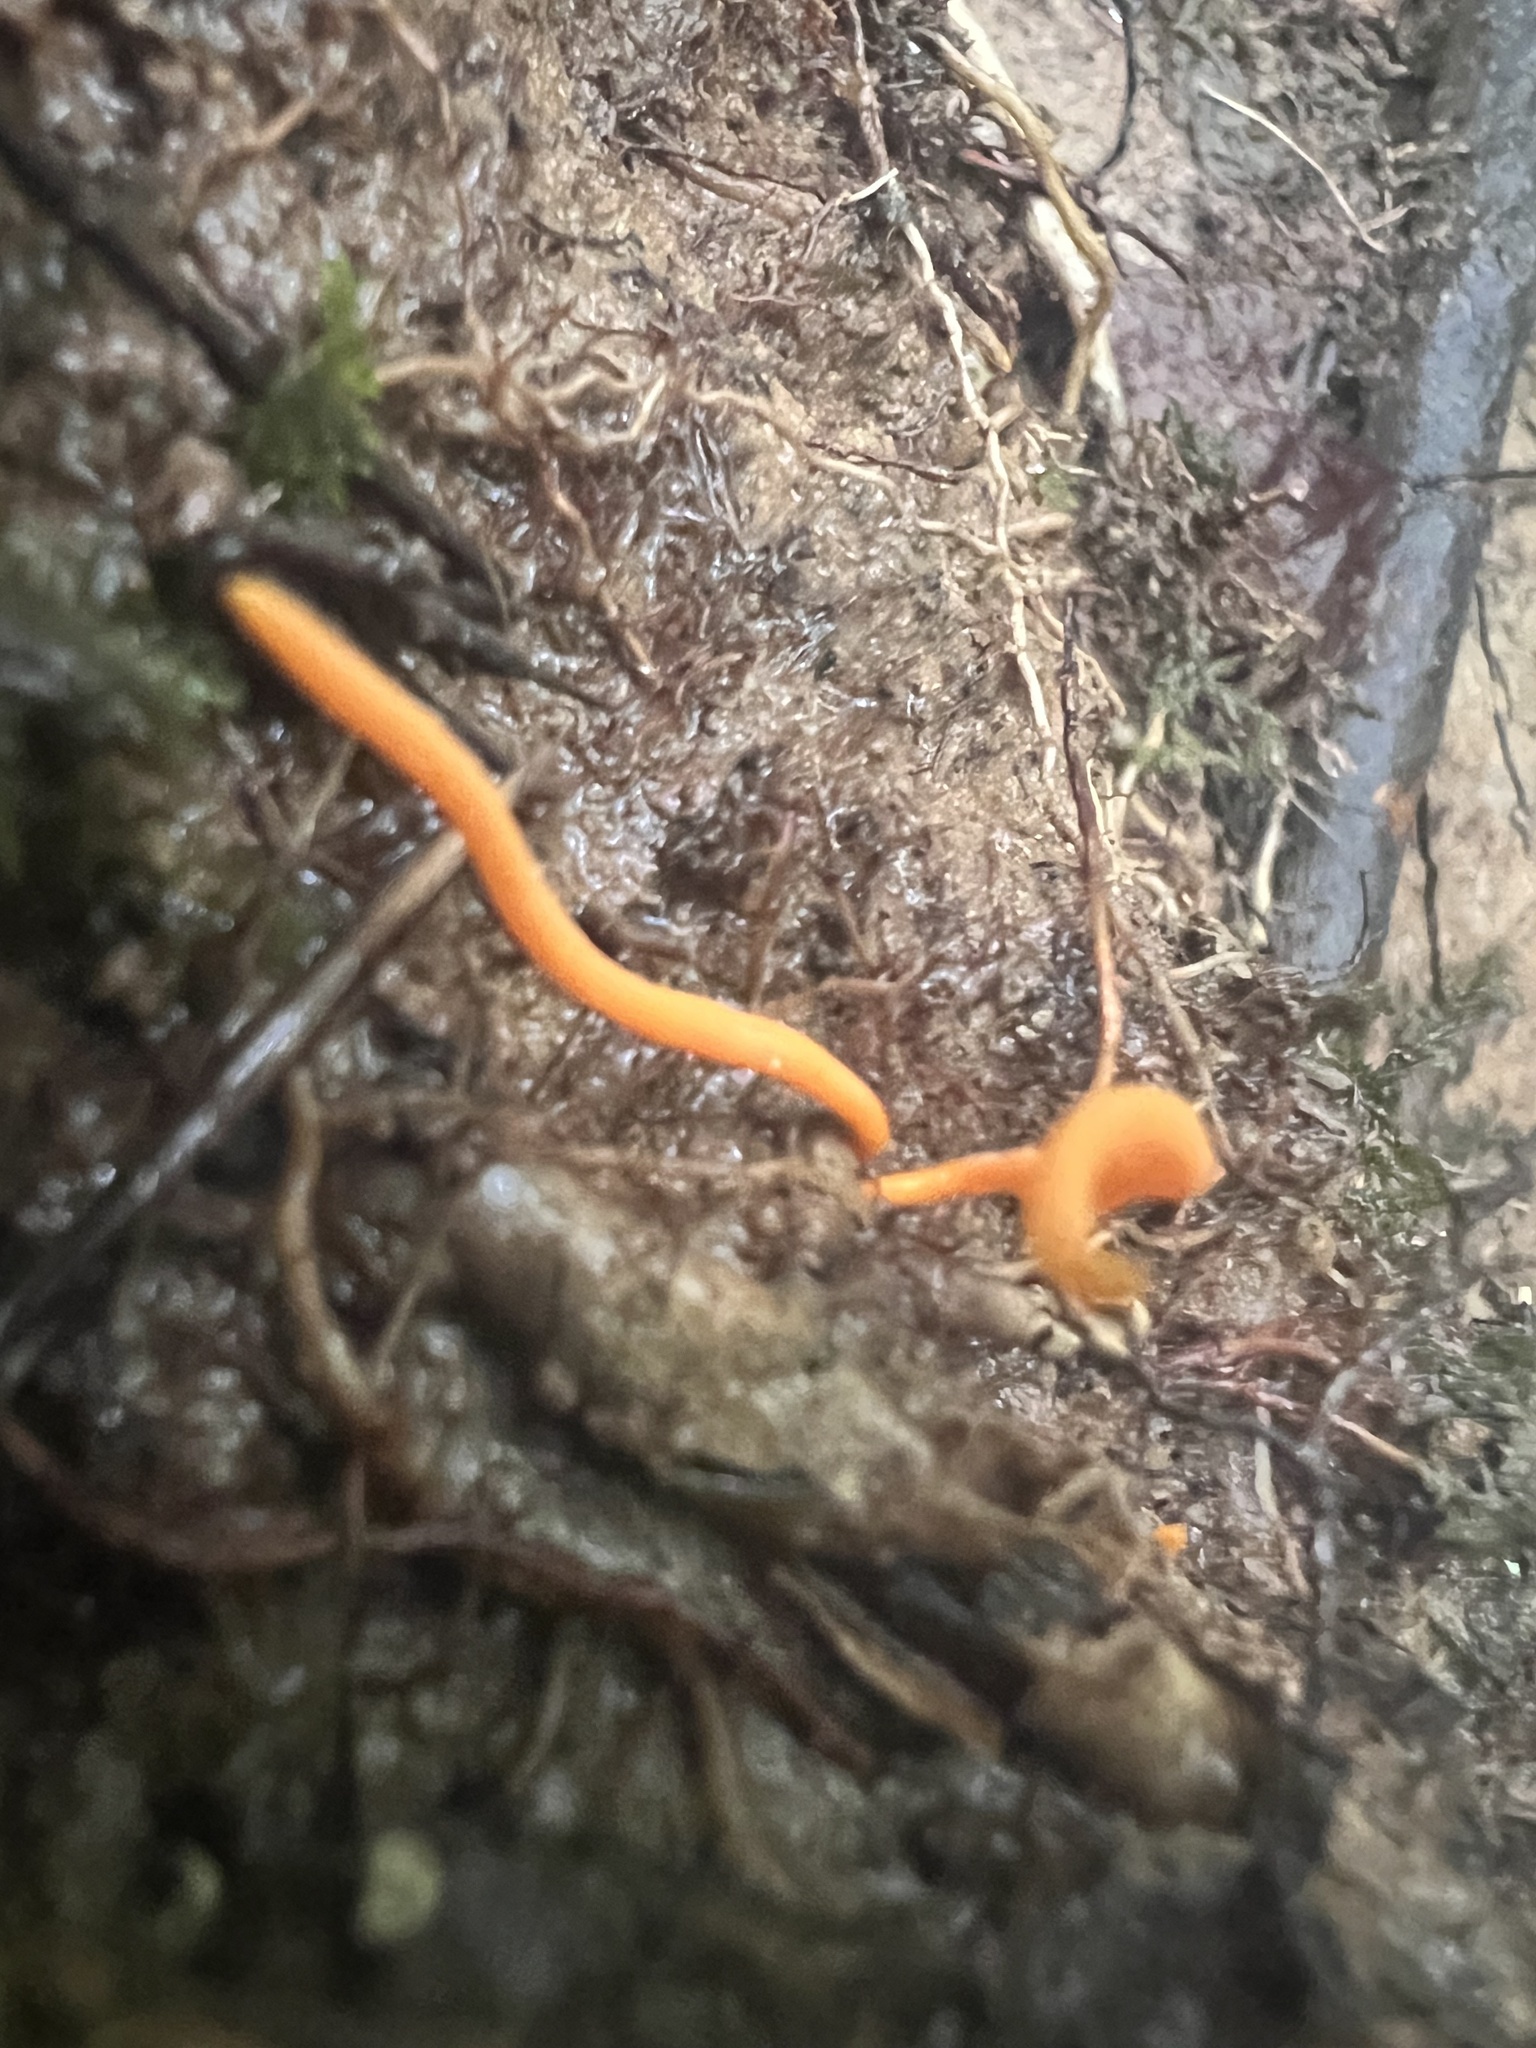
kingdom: Fungi
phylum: Basidiomycota
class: Agaricomycetes
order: Agaricales
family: Clavariaceae
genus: Clavulinopsis
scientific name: Clavulinopsis aurantiocinnabarina
